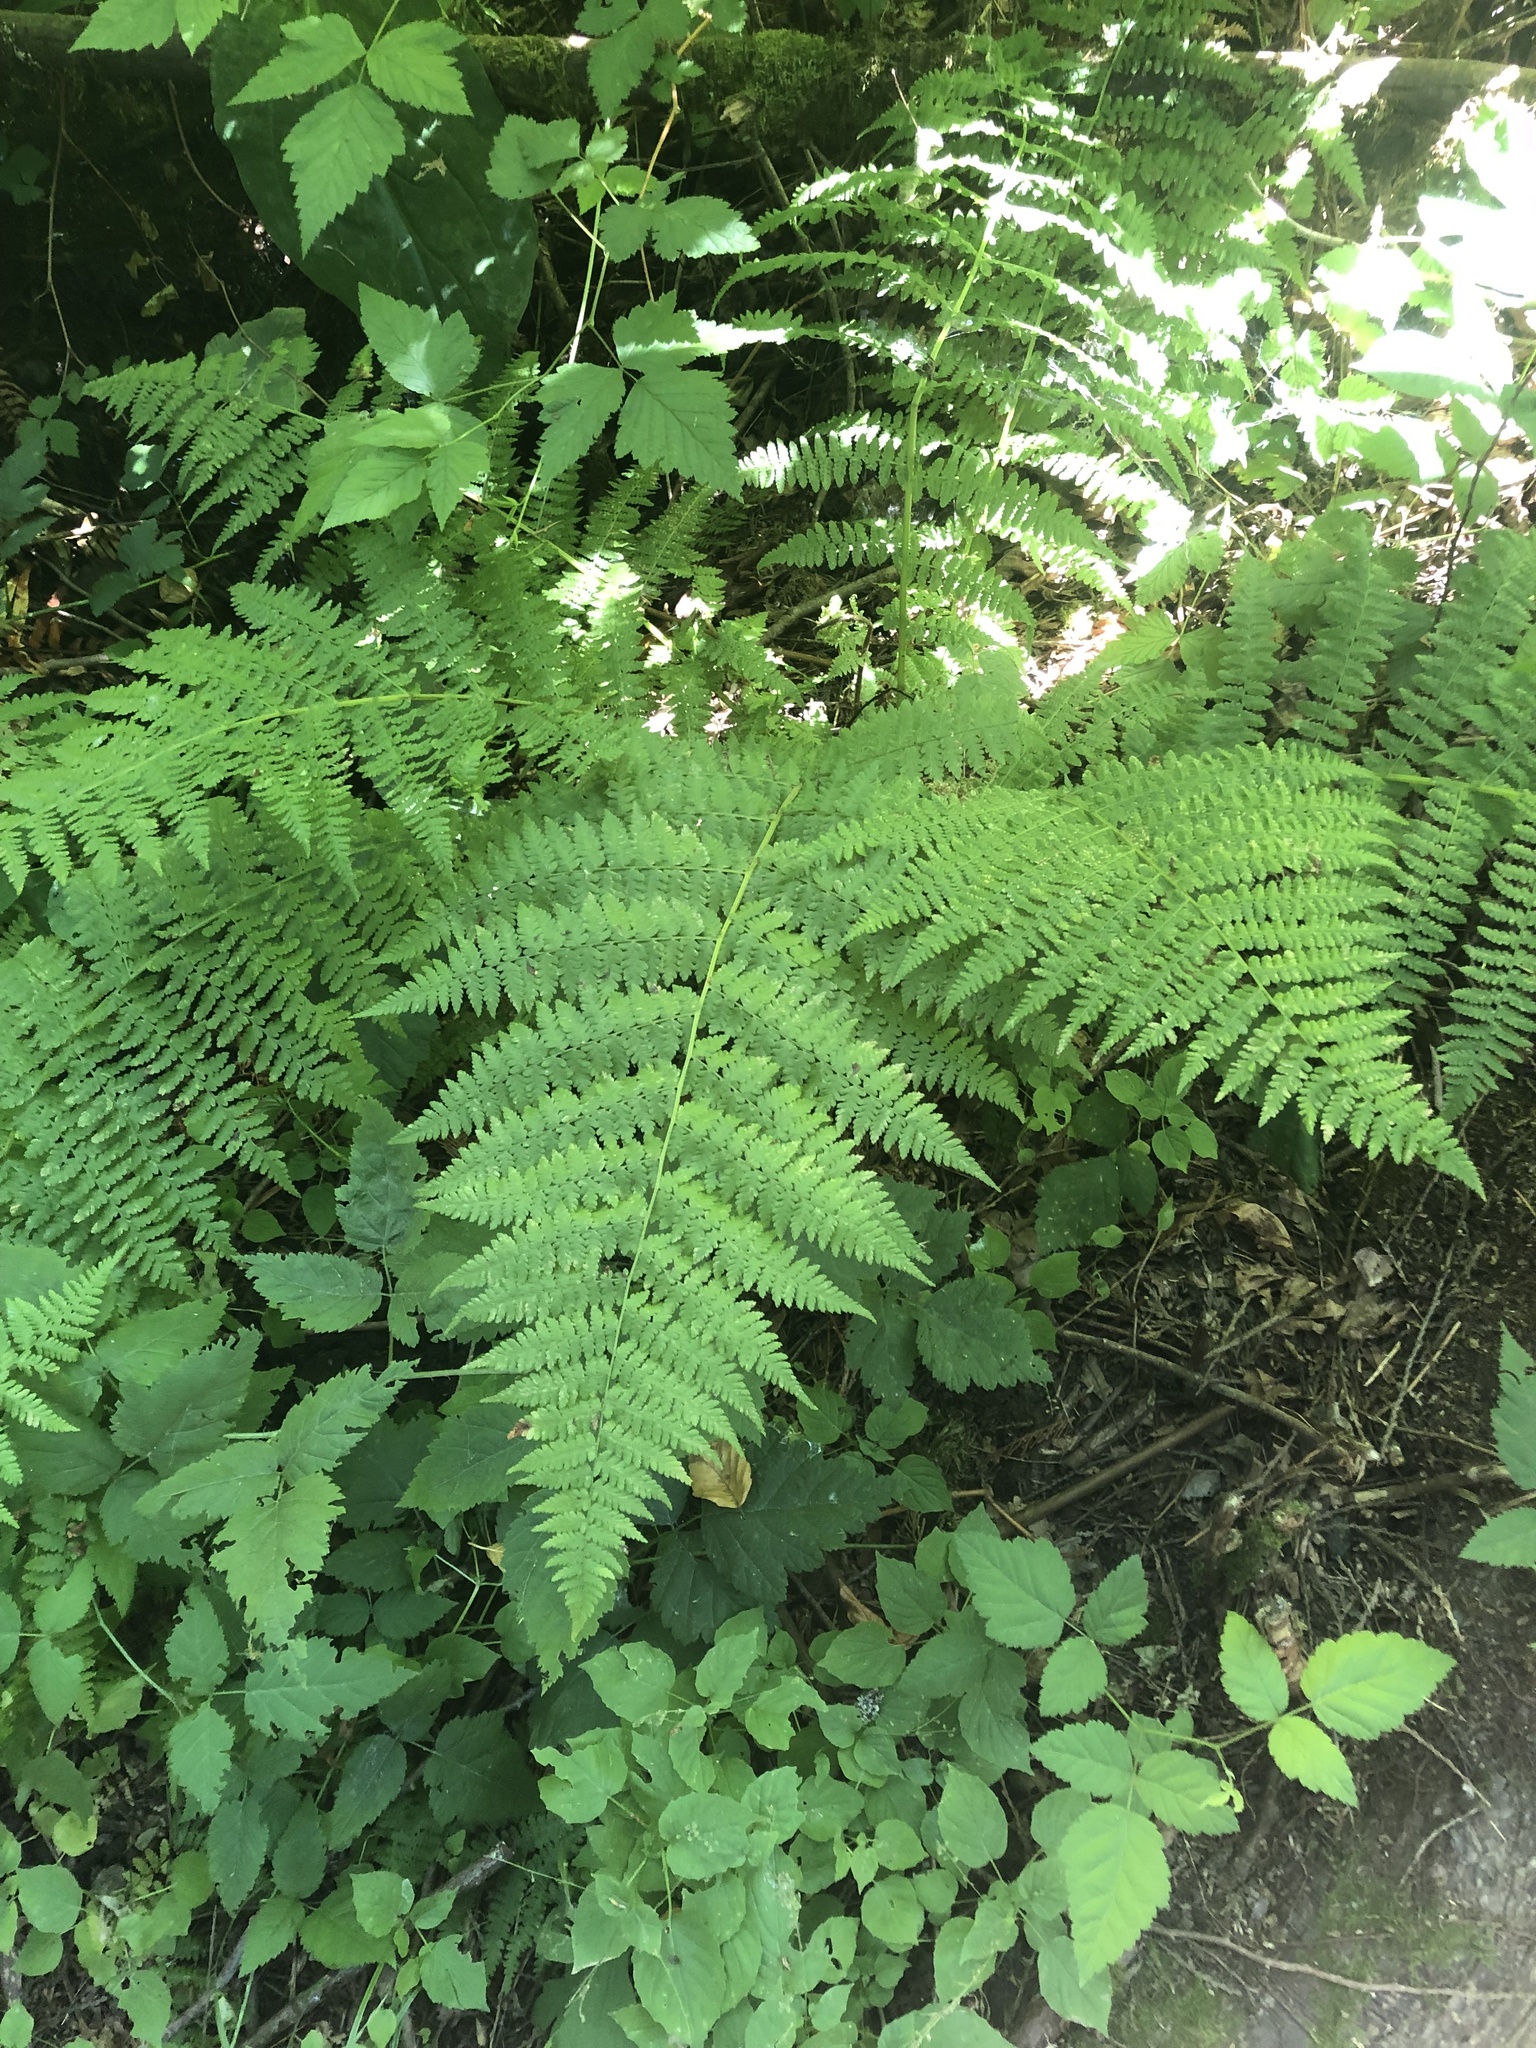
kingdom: Plantae
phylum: Tracheophyta
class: Polypodiopsida
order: Polypodiales
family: Athyriaceae
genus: Athyrium
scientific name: Athyrium filix-femina
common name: Lady fern
